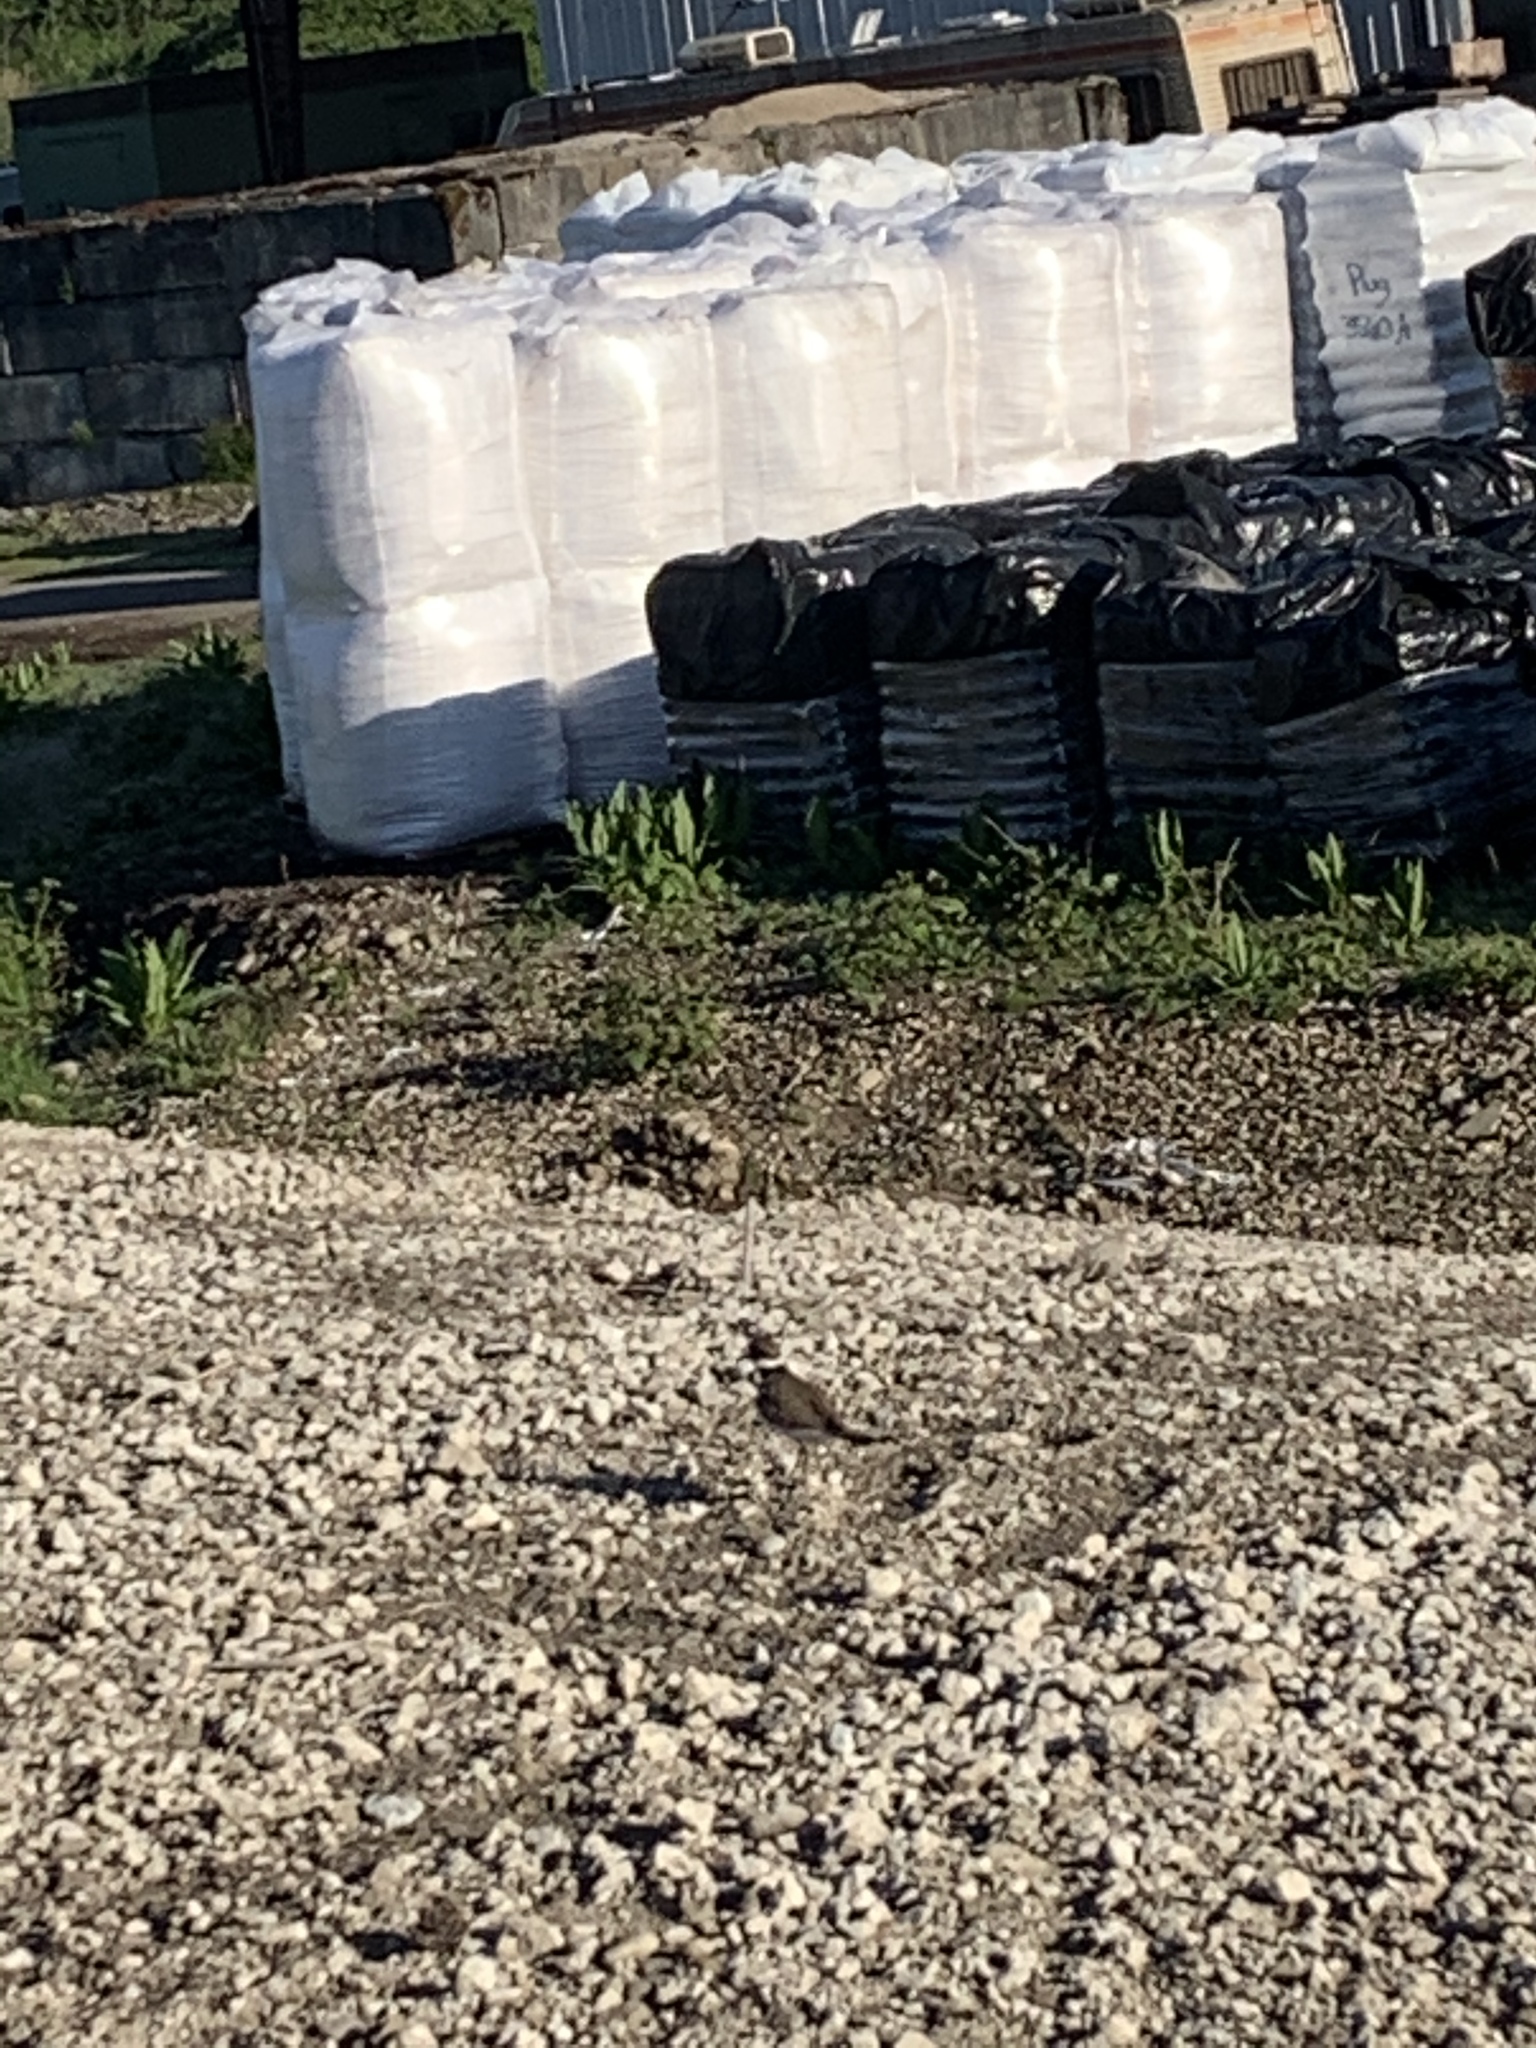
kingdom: Animalia
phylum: Chordata
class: Aves
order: Charadriiformes
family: Charadriidae
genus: Charadrius
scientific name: Charadrius vociferus
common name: Killdeer
